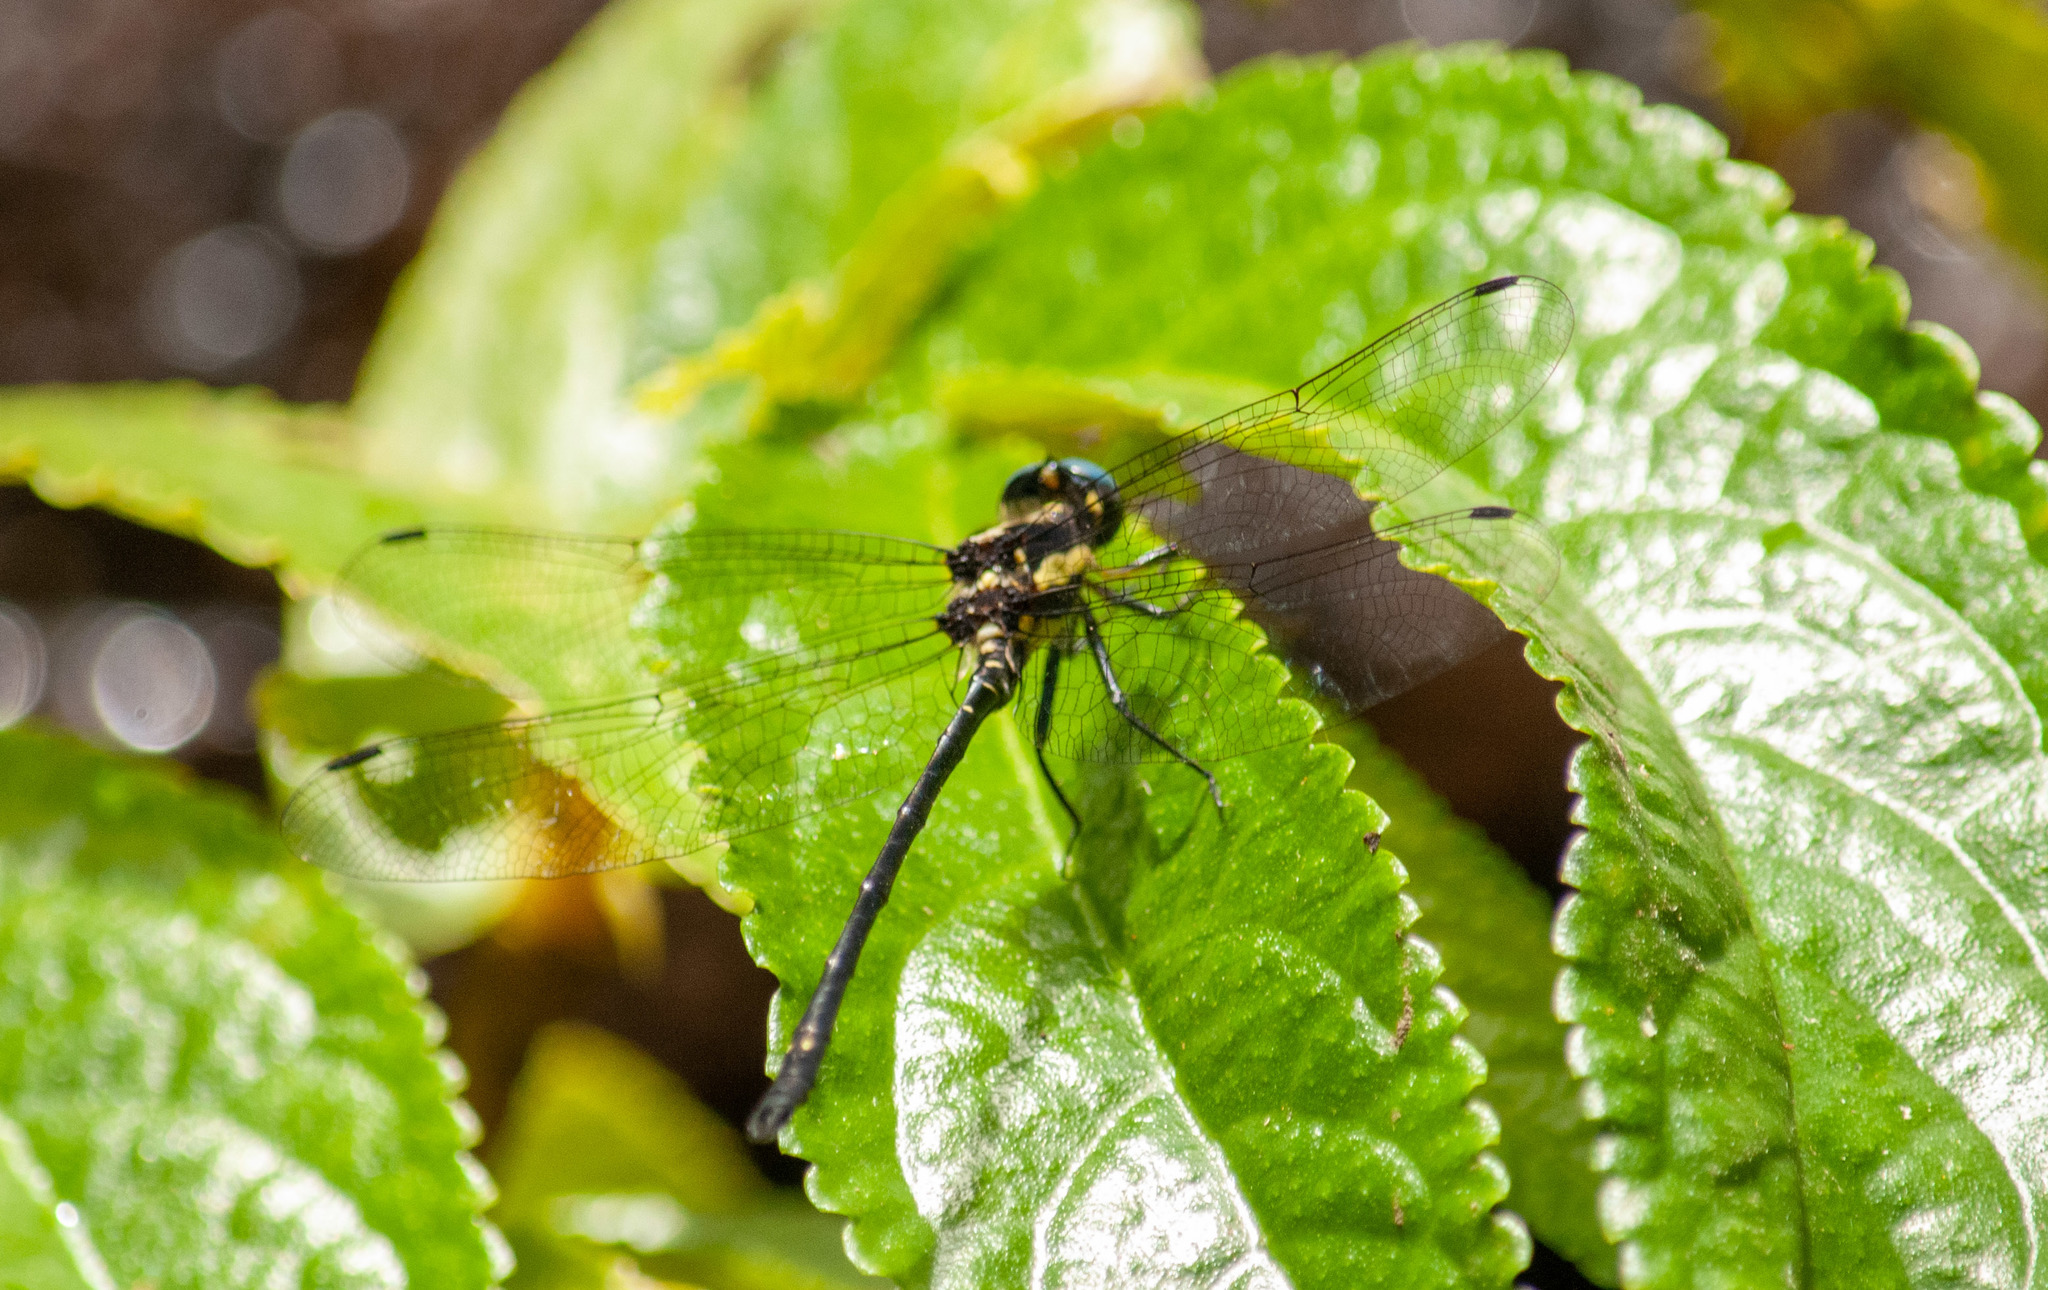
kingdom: Animalia
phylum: Arthropoda
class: Insecta
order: Odonata
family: Synthemistidae
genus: Eusynthemis
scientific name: Eusynthemis aurolineata
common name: Variable tigertail
